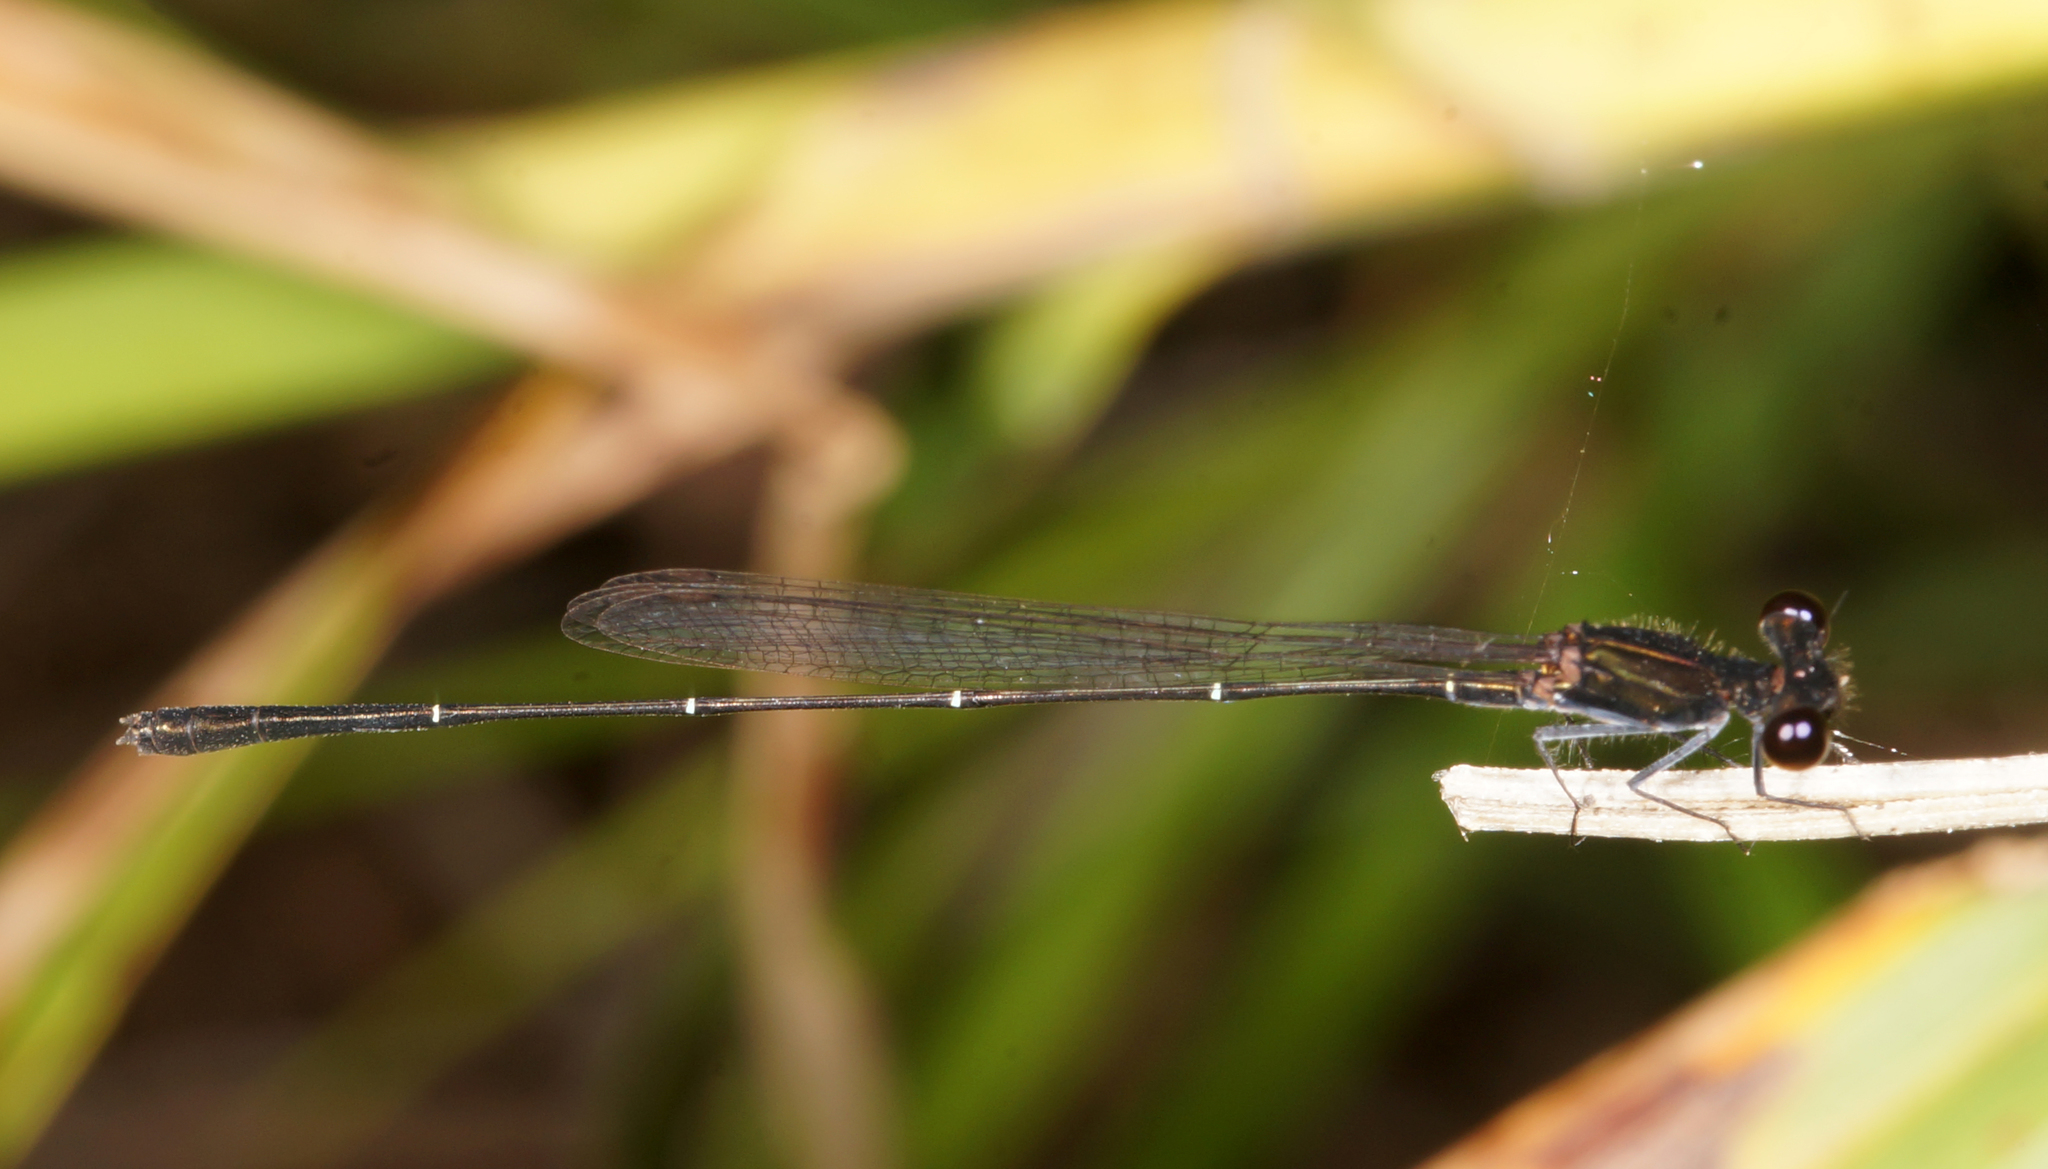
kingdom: Animalia
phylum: Arthropoda
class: Insecta
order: Odonata
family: Platycnemididae
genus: Prodasineura
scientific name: Prodasineura autumnalis
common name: Black threadtail
